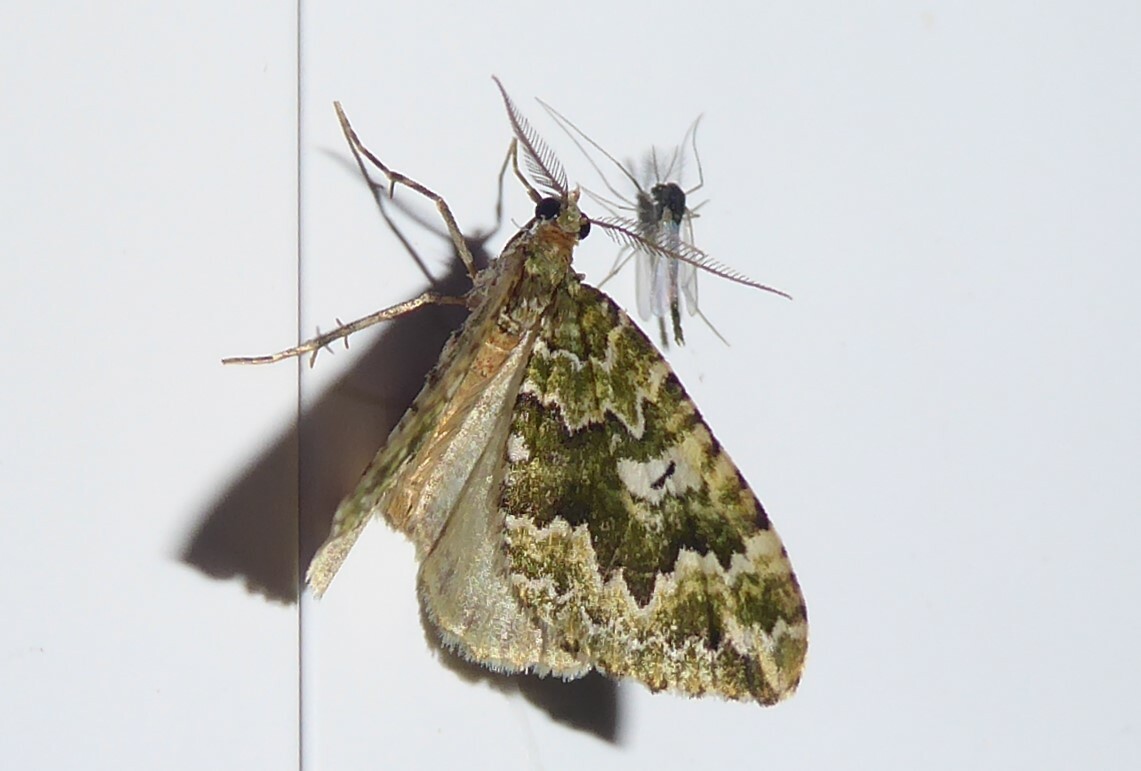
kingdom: Animalia
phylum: Arthropoda
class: Insecta
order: Lepidoptera
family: Geometridae
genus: Asaphodes
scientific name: Asaphodes beata
